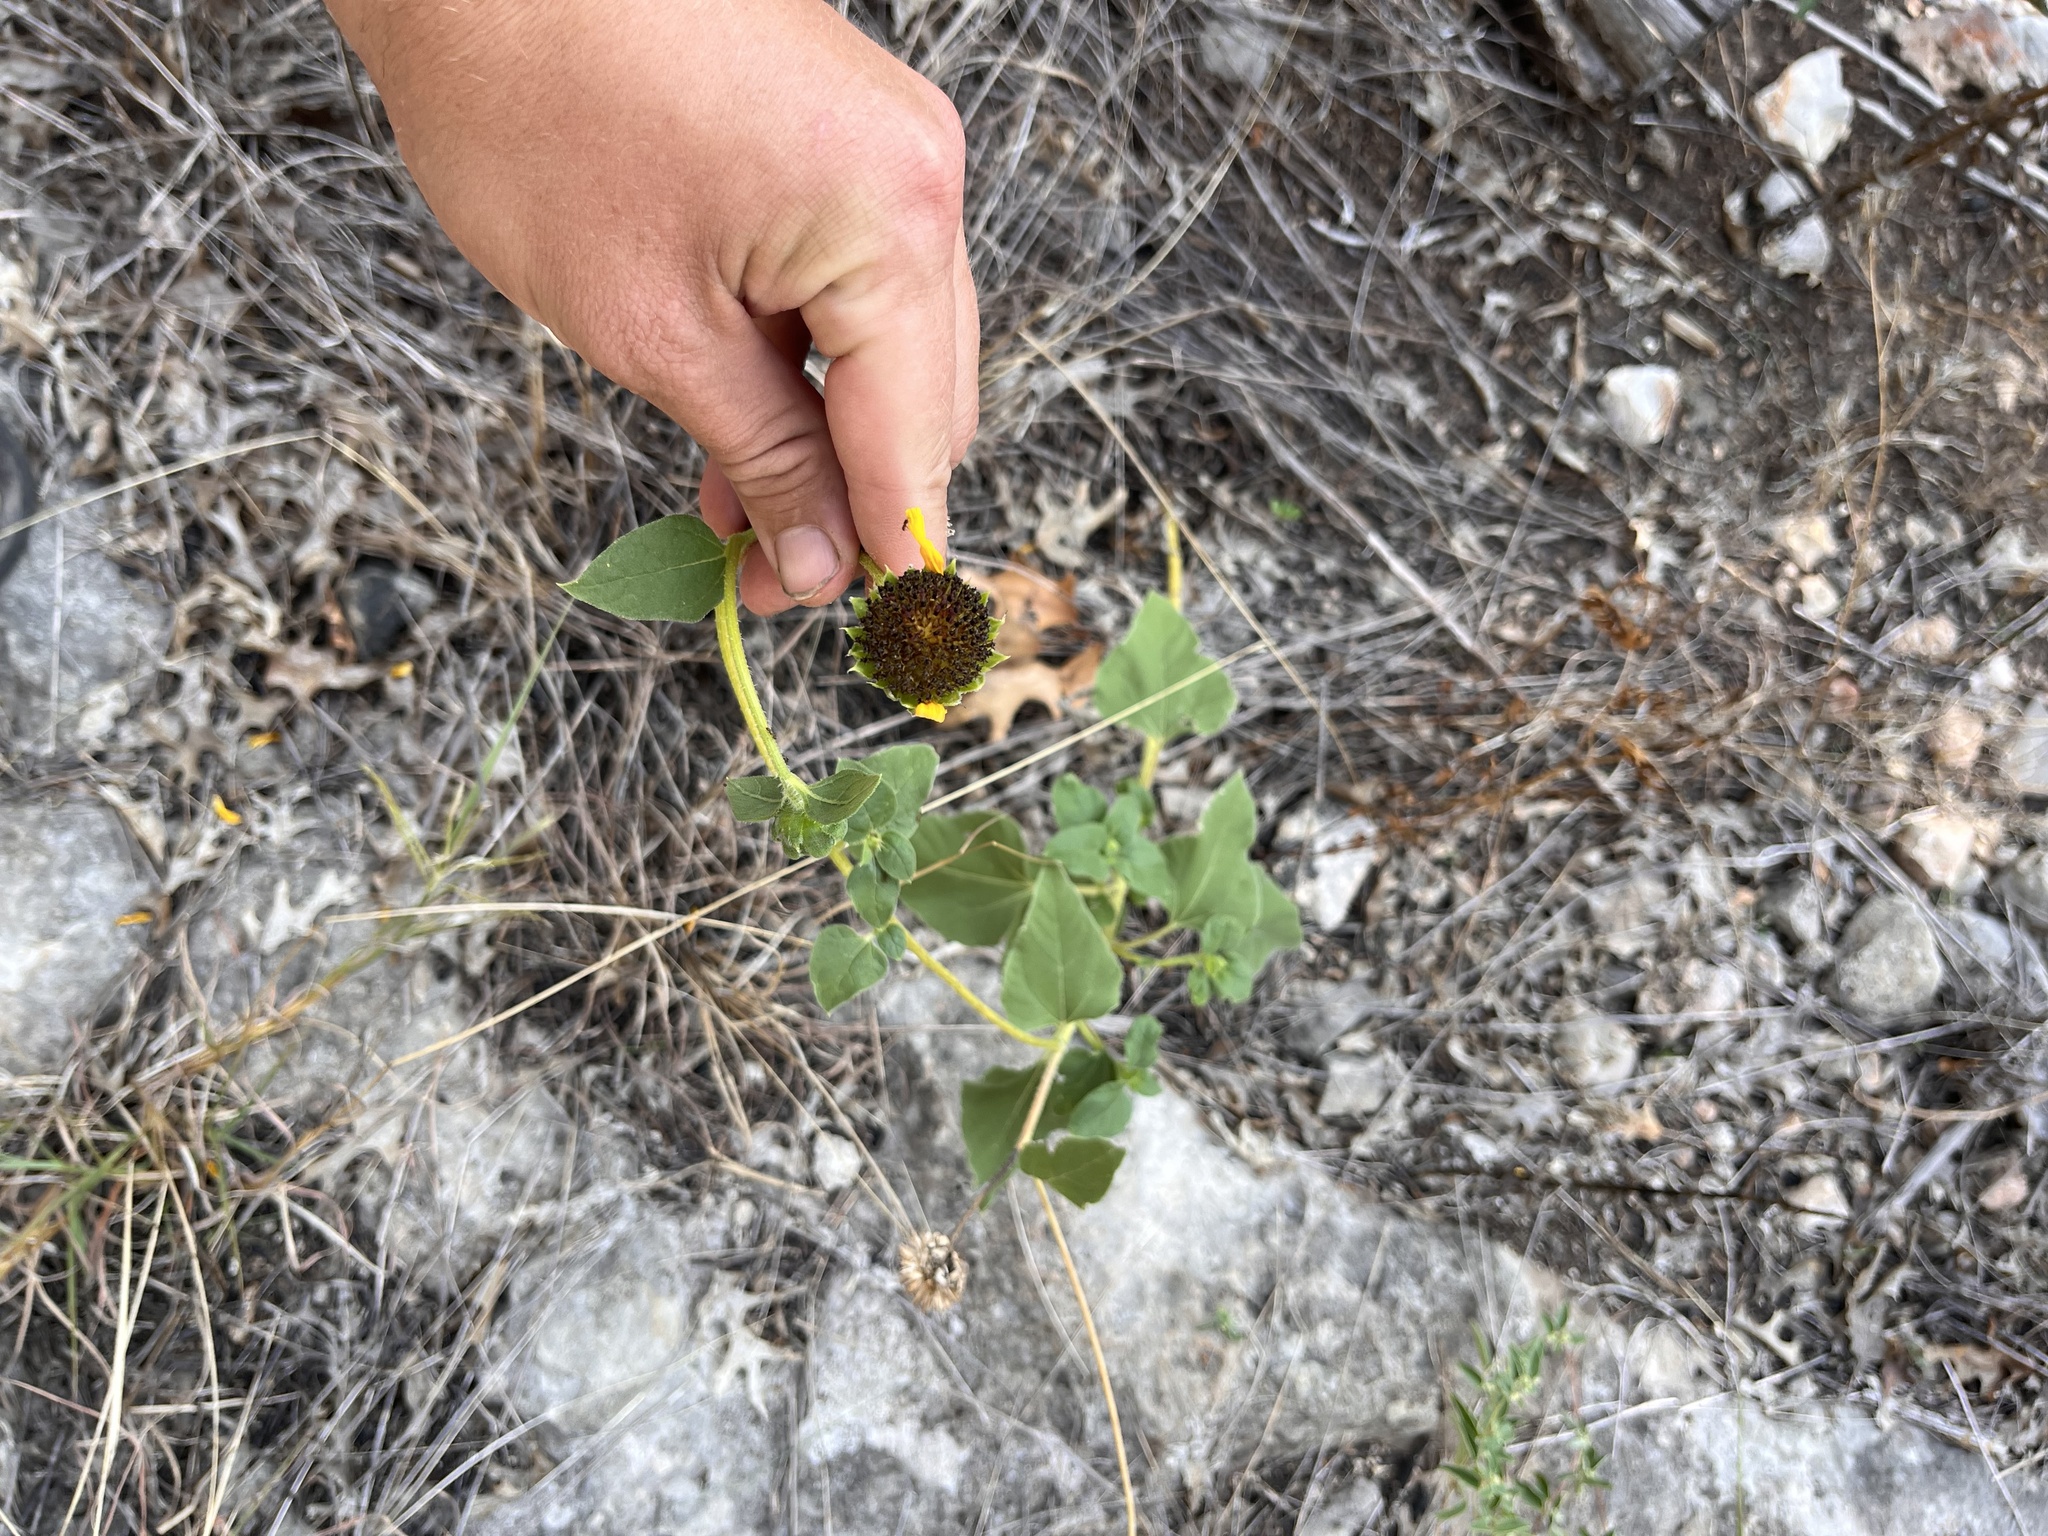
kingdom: Plantae
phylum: Tracheophyta
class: Magnoliopsida
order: Asterales
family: Asteraceae
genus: Verbesina
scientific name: Verbesina lindheimeri
